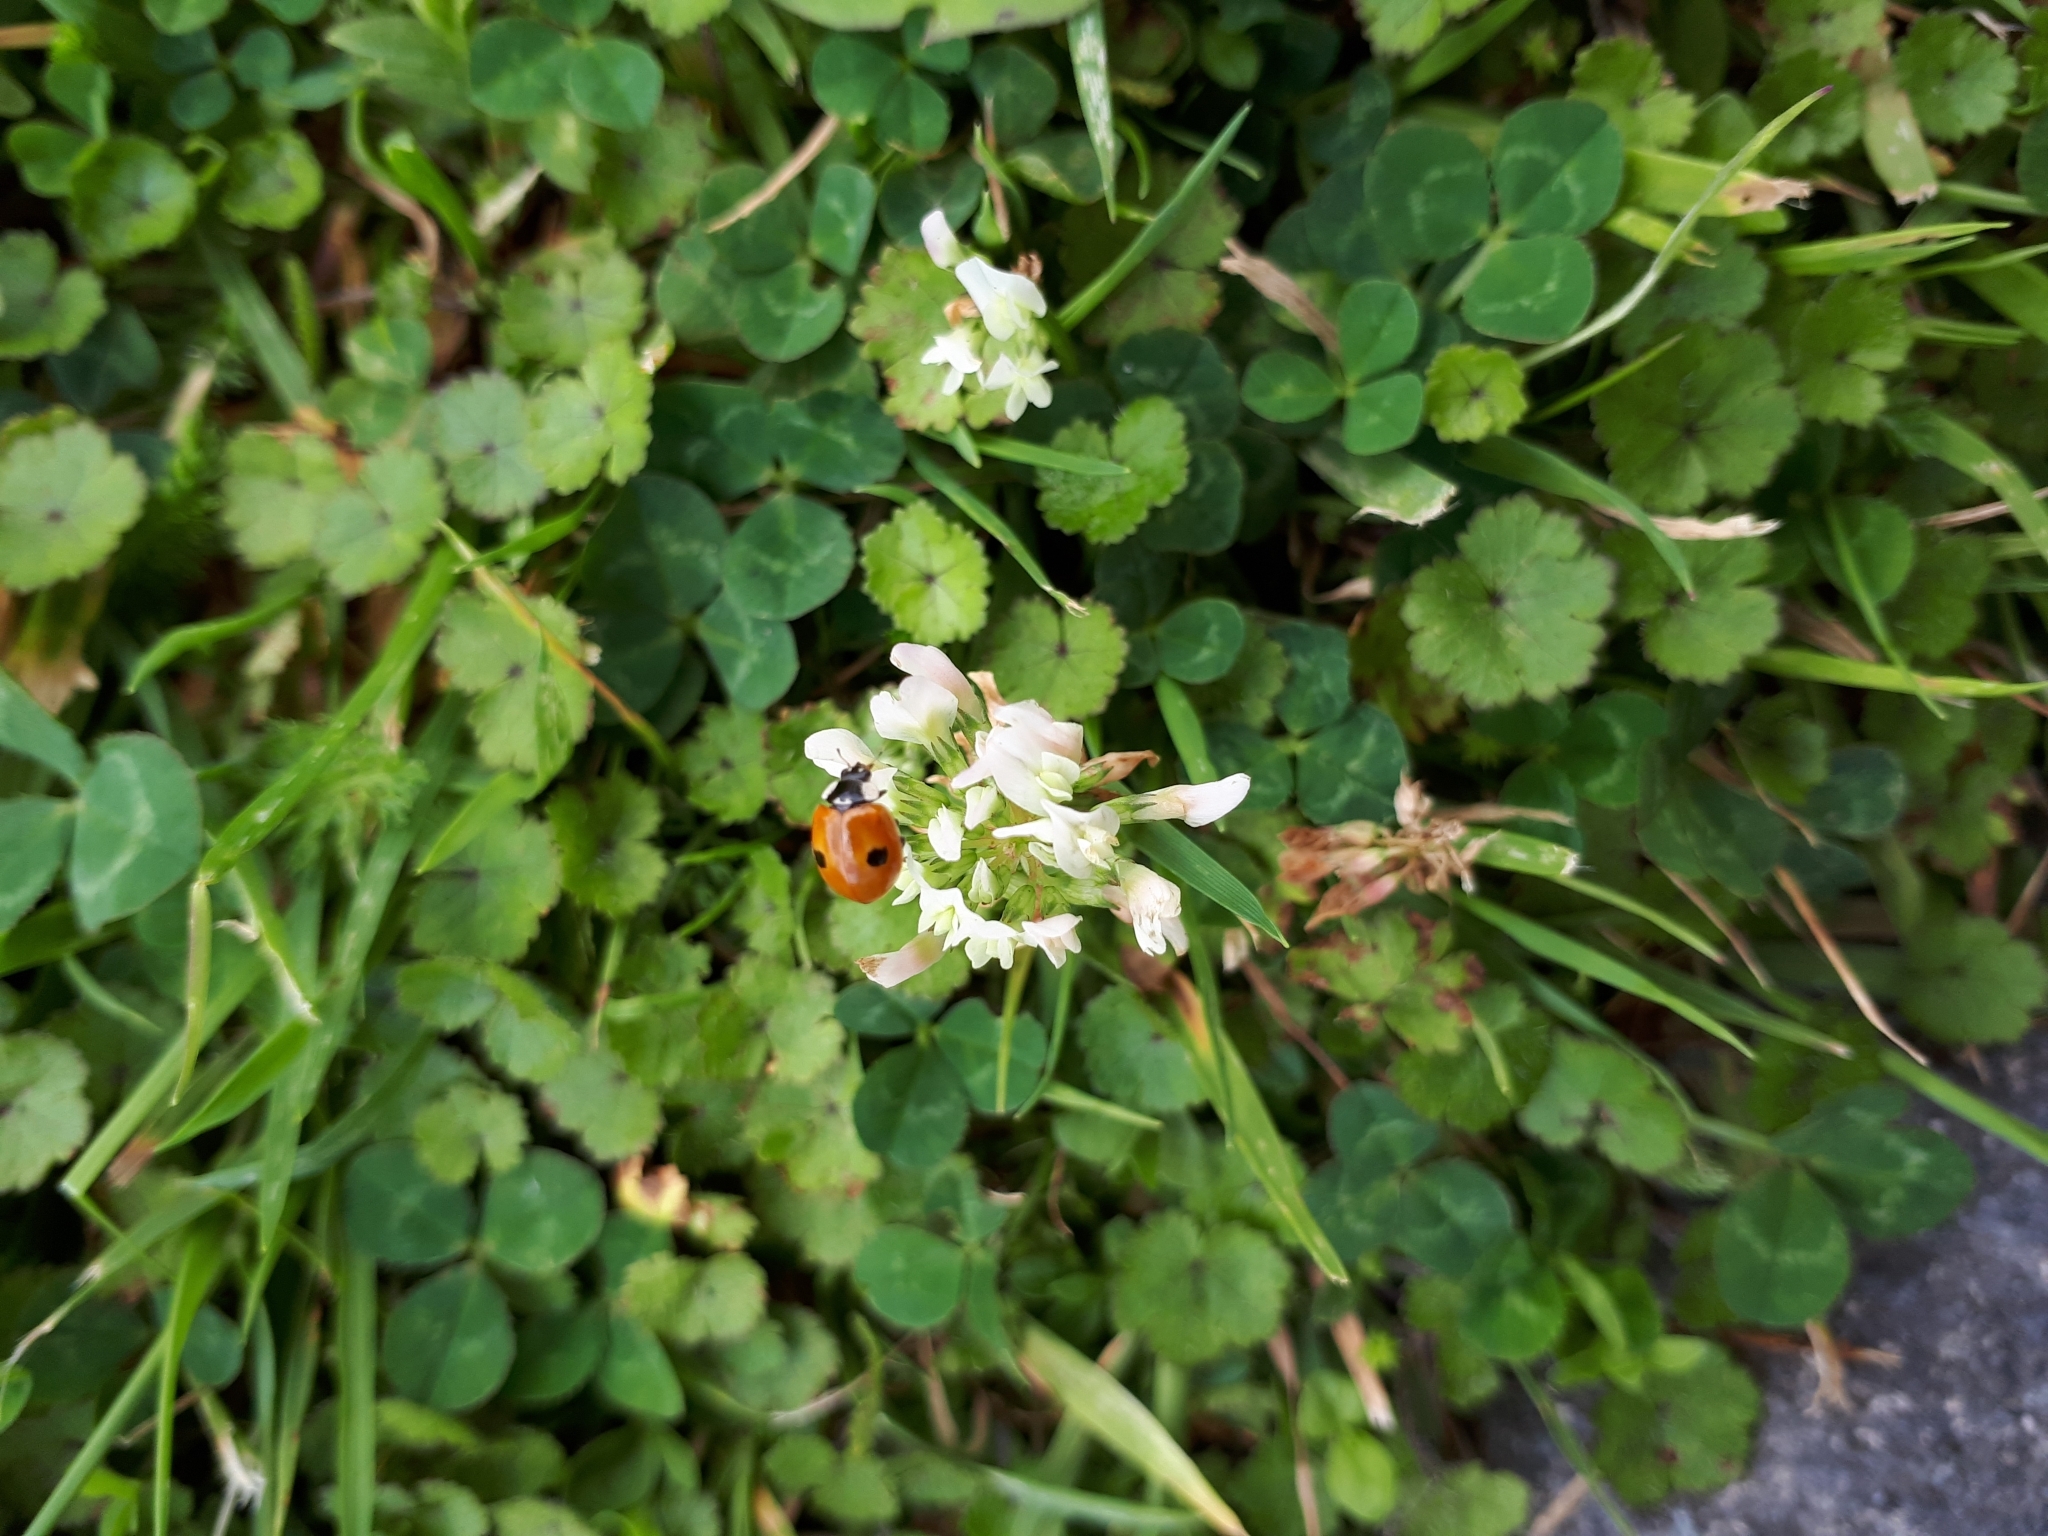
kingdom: Animalia
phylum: Arthropoda
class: Insecta
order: Coleoptera
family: Coccinellidae
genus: Adalia
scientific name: Adalia bipunctata
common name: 2-spot ladybird
